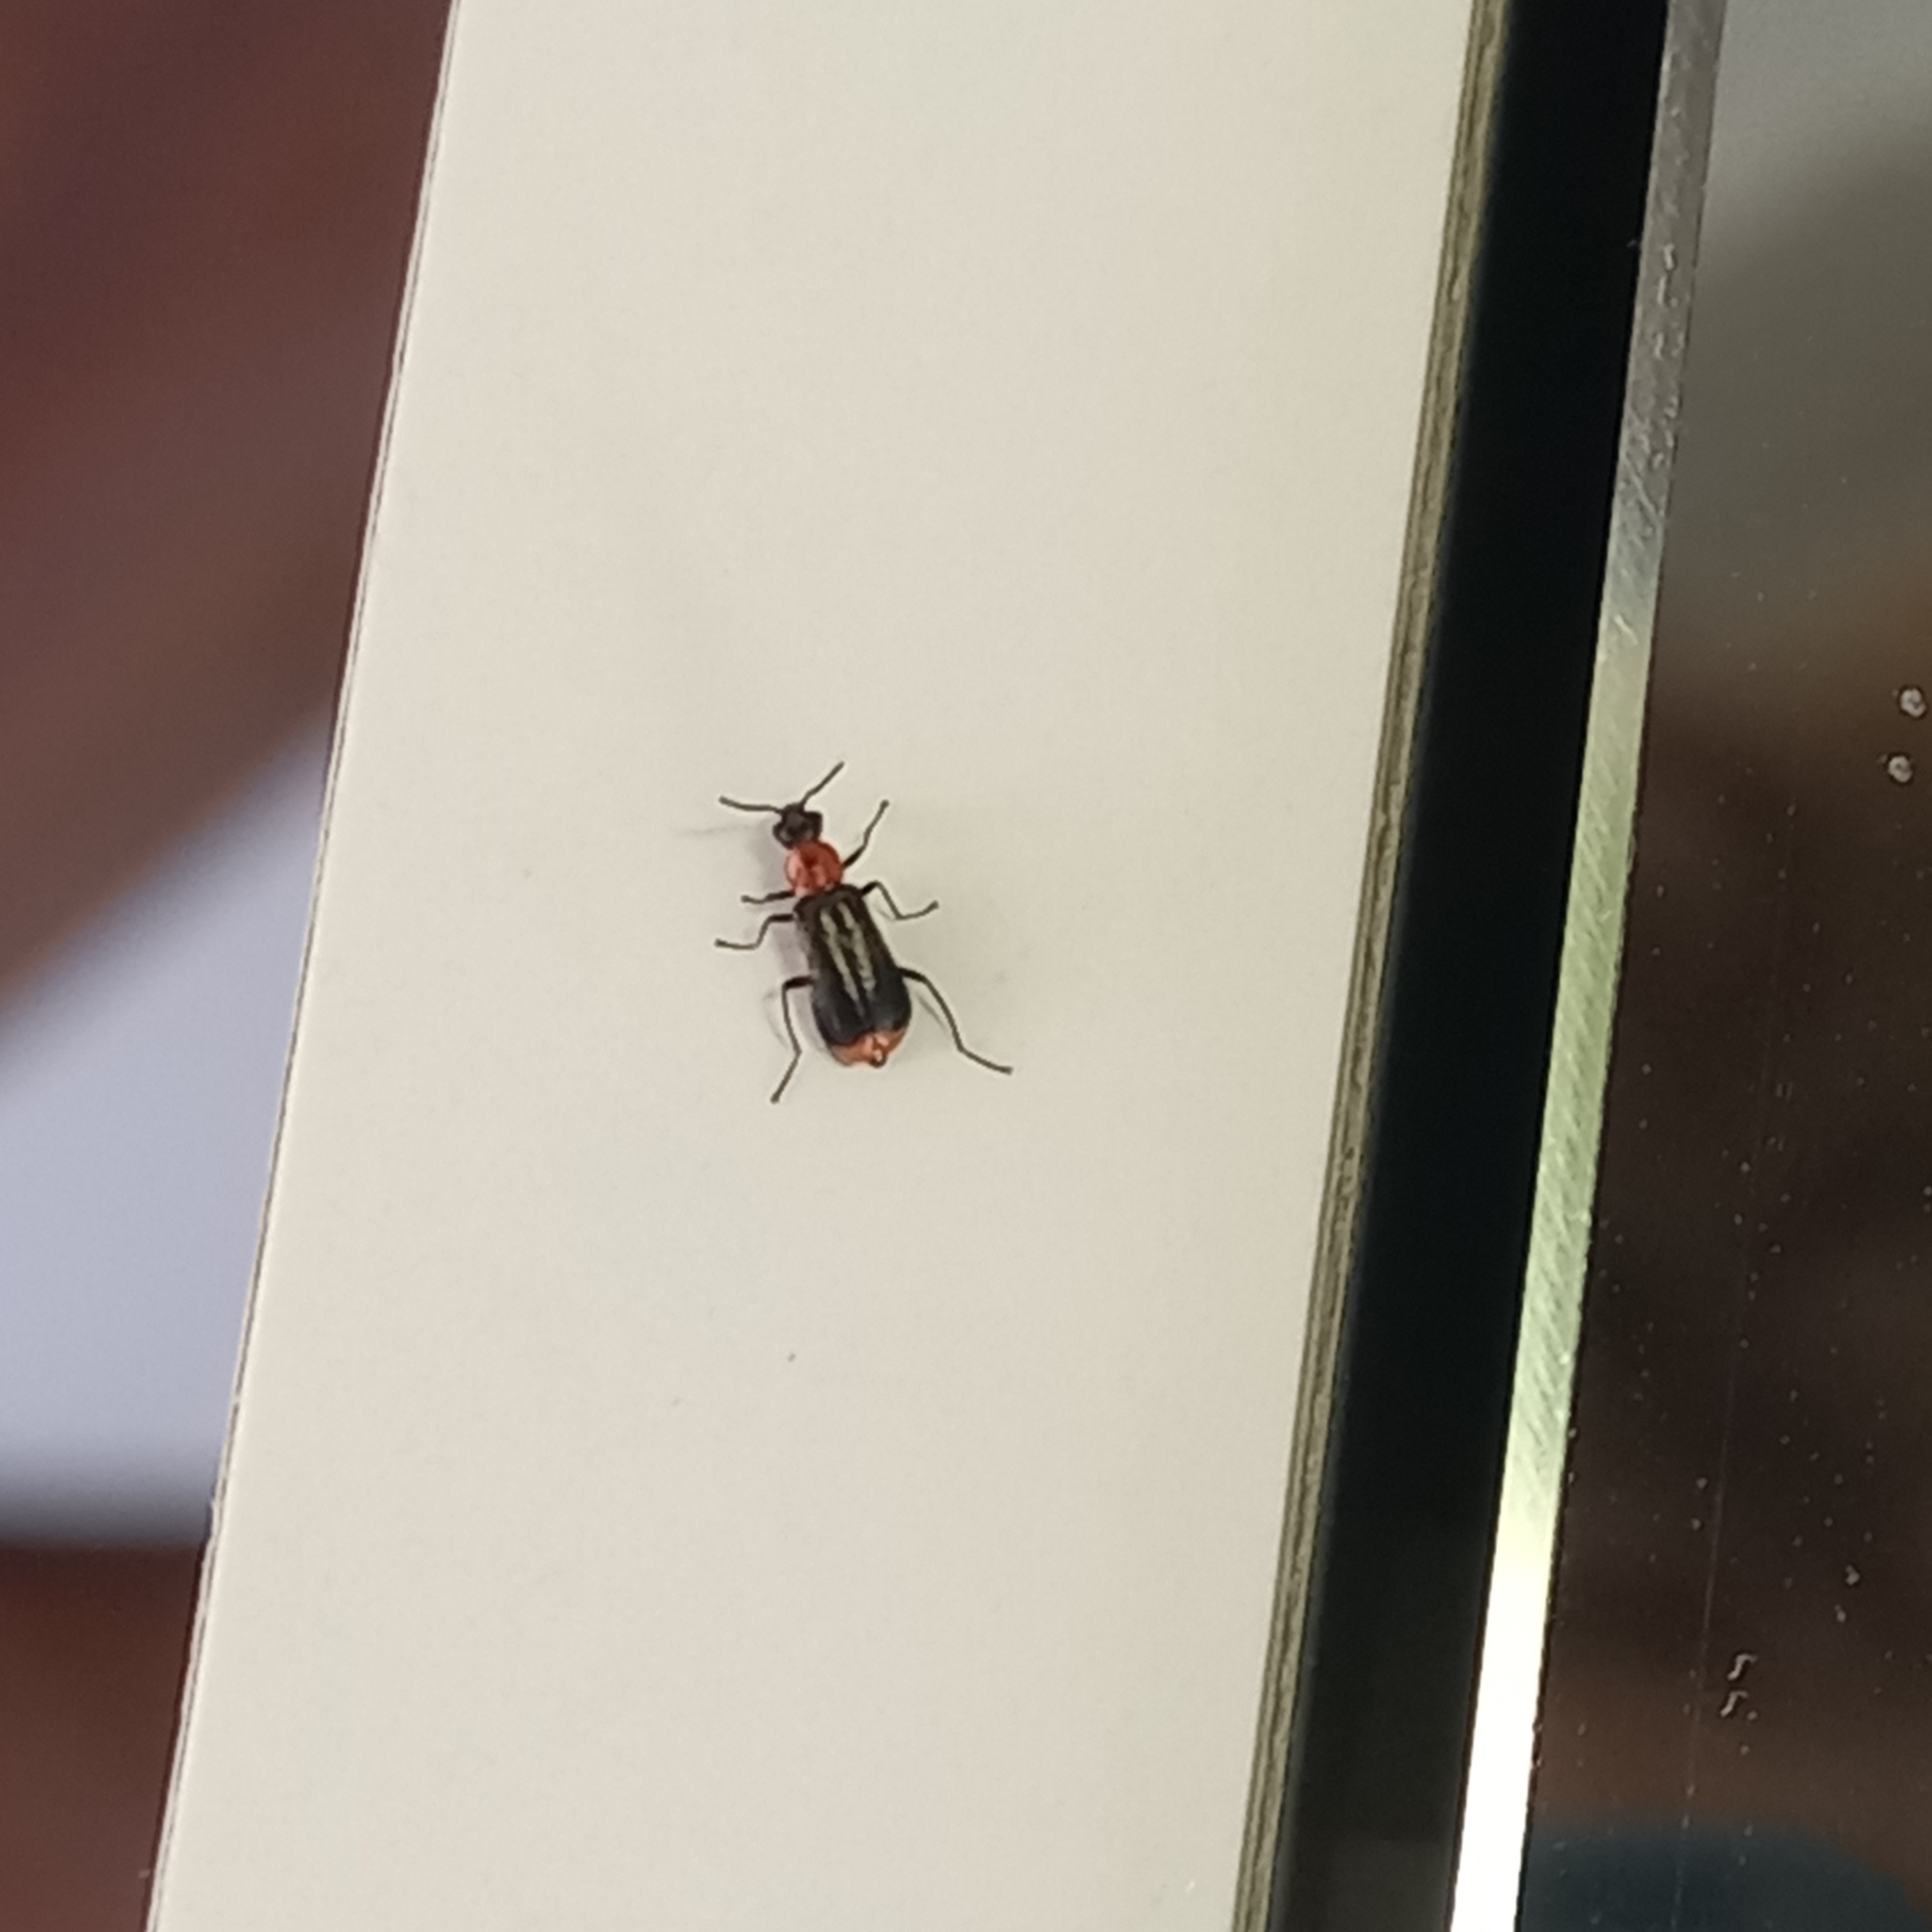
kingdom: Animalia
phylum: Arthropoda
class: Insecta
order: Coleoptera
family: Malachiidae
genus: Attalus
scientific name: Attalus minimus
